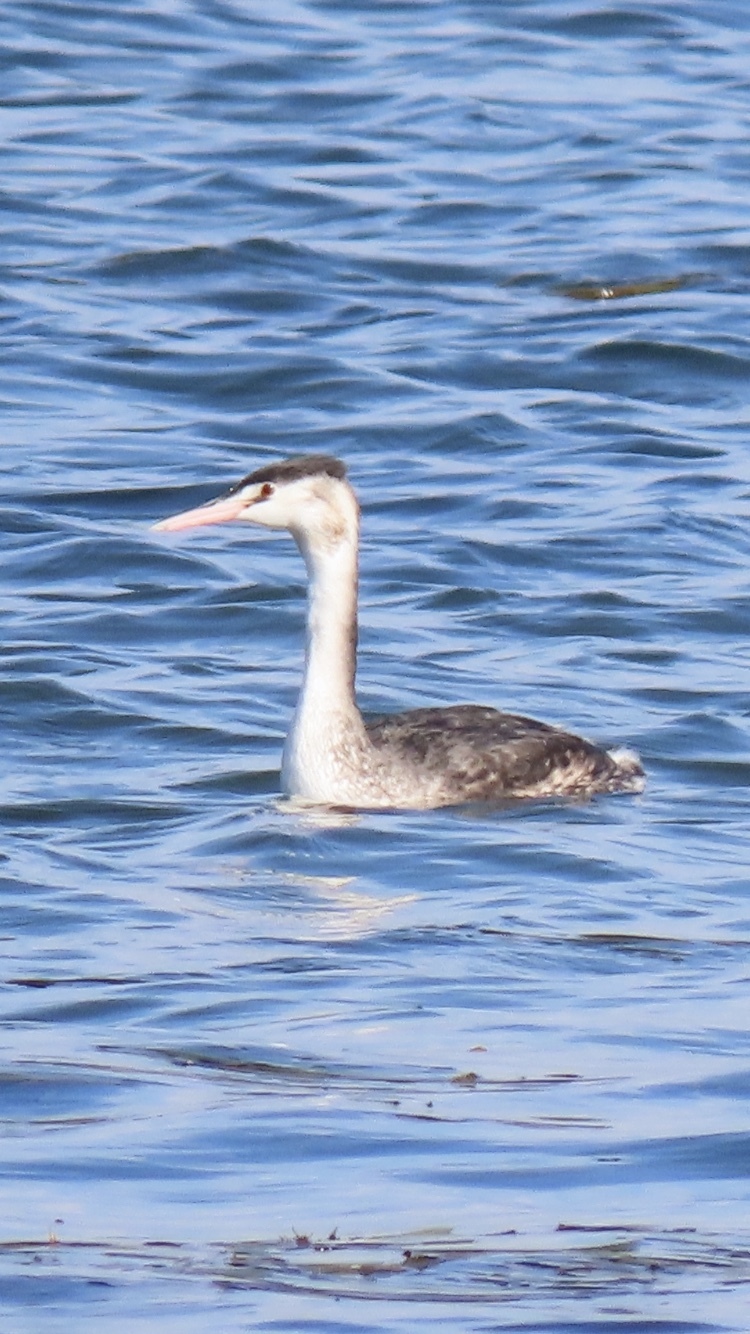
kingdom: Animalia
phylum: Chordata
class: Aves
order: Podicipediformes
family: Podicipedidae
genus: Podiceps
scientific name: Podiceps cristatus
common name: Great crested grebe
